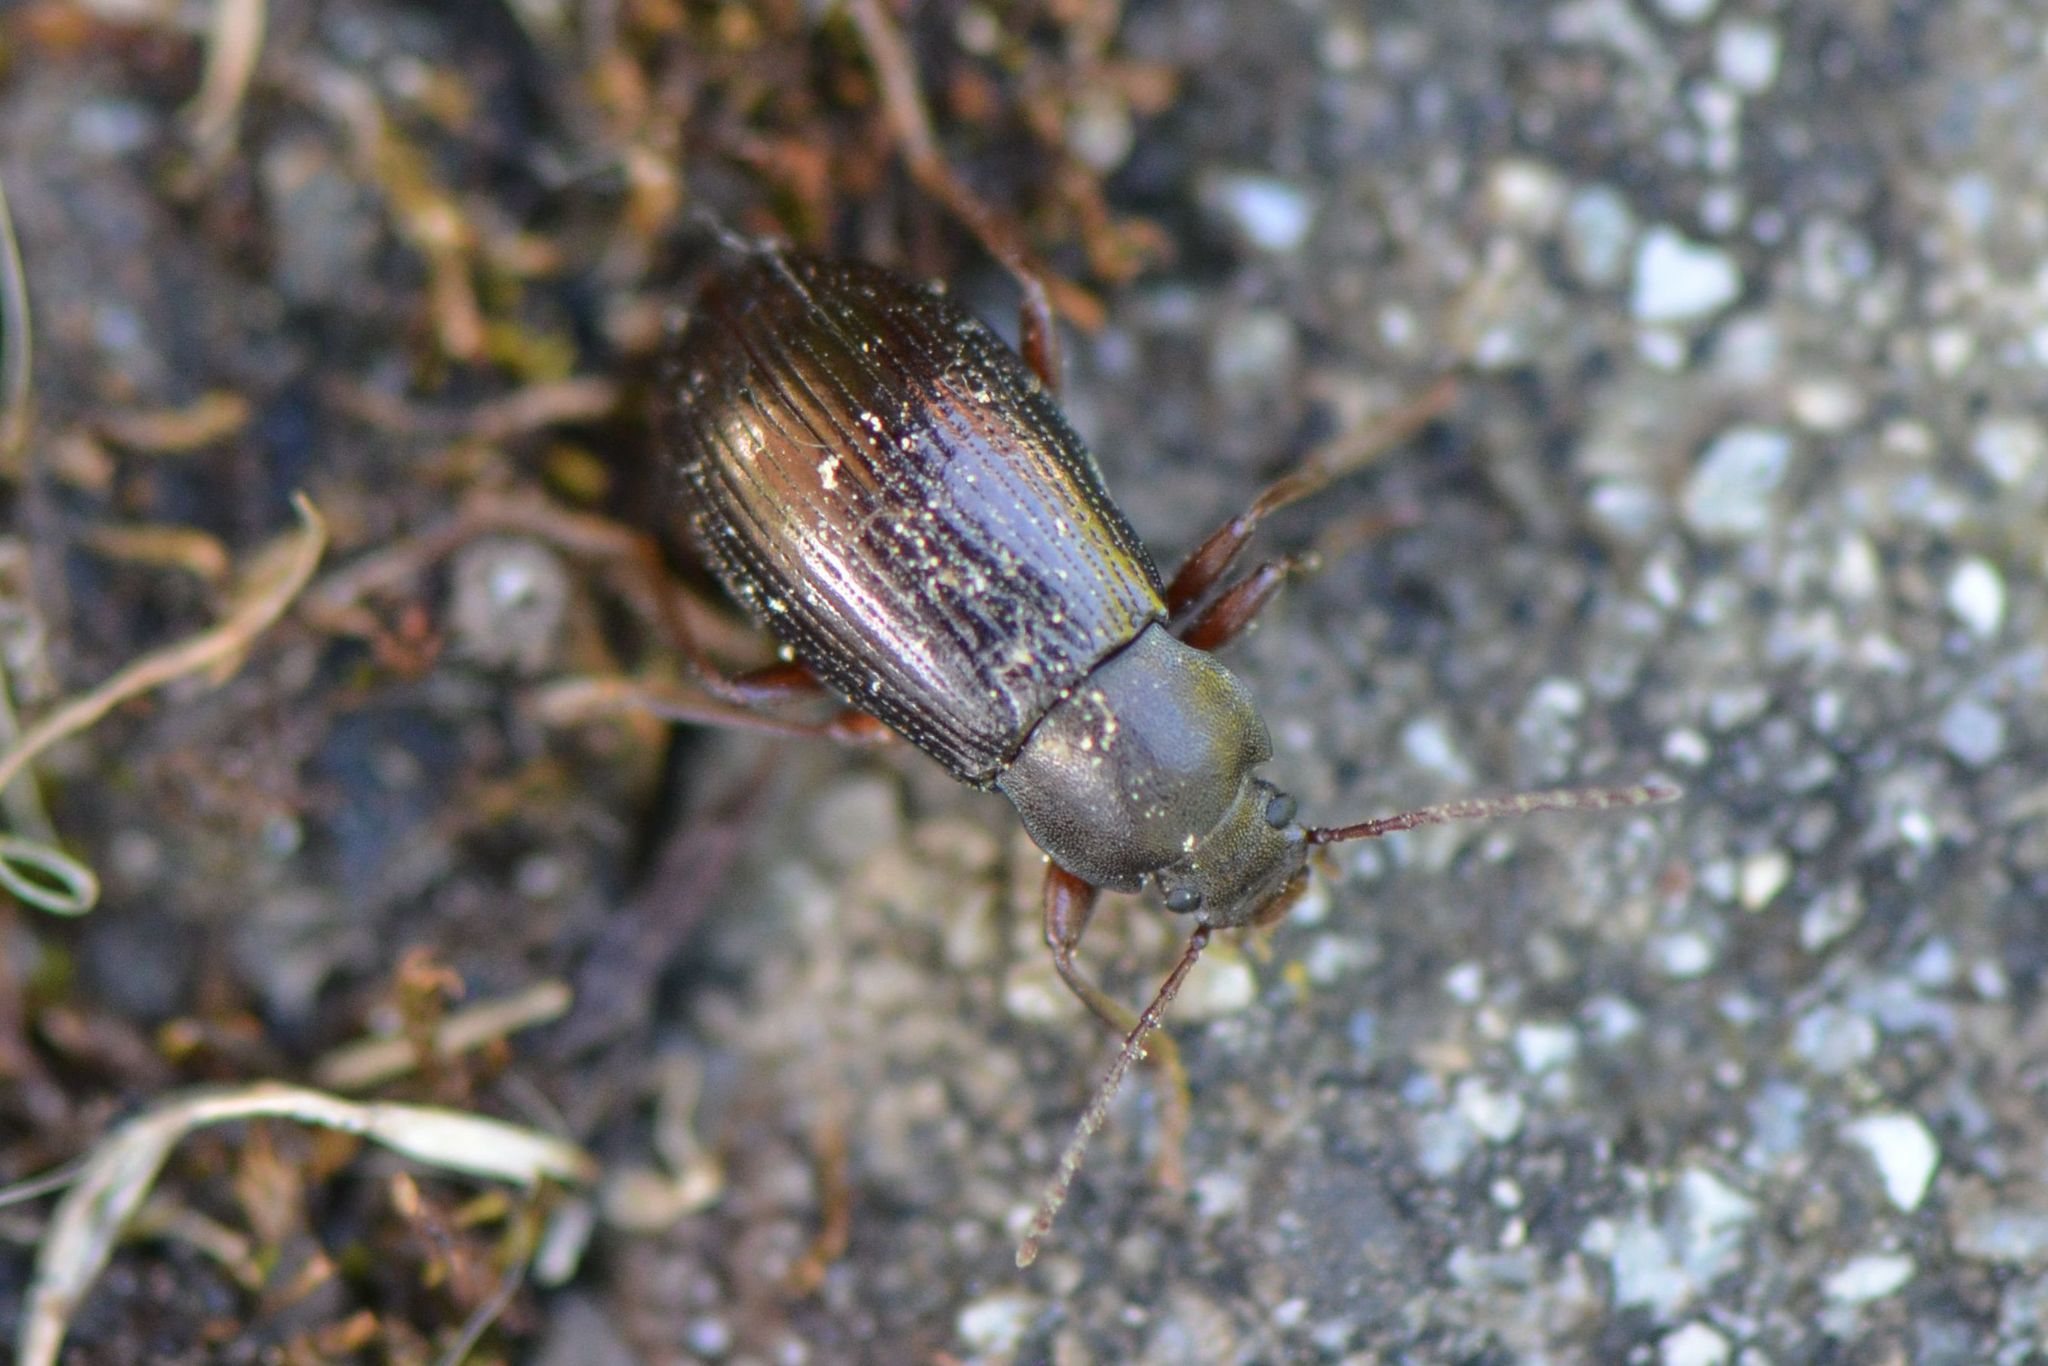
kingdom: Animalia
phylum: Arthropoda
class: Insecta
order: Coleoptera
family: Tenebrionidae
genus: Stenomax
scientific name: Stenomax aeneus
